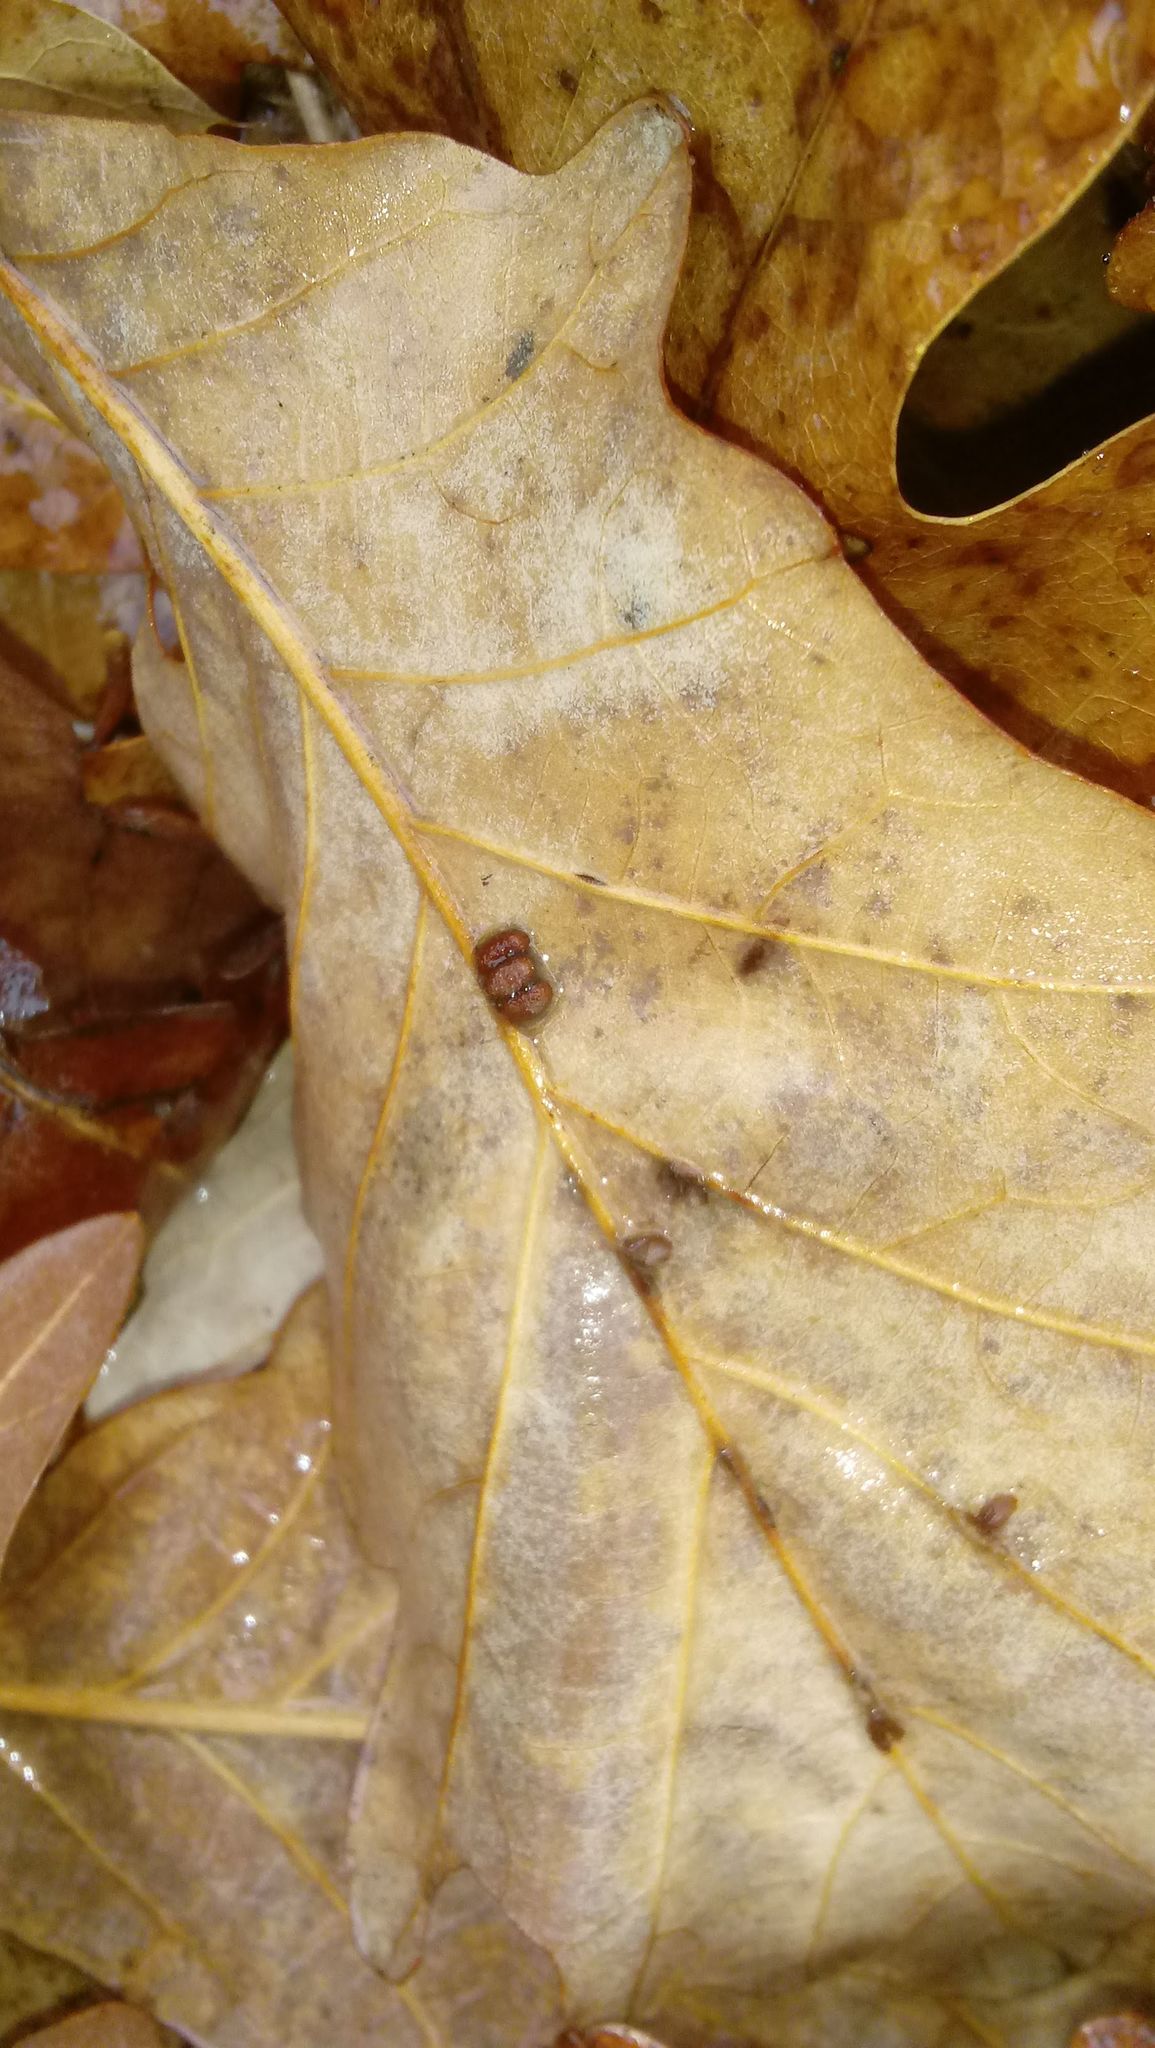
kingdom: Animalia
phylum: Arthropoda
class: Insecta
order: Hymenoptera
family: Cynipidae
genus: Andricus
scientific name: Andricus Druon ignotum
